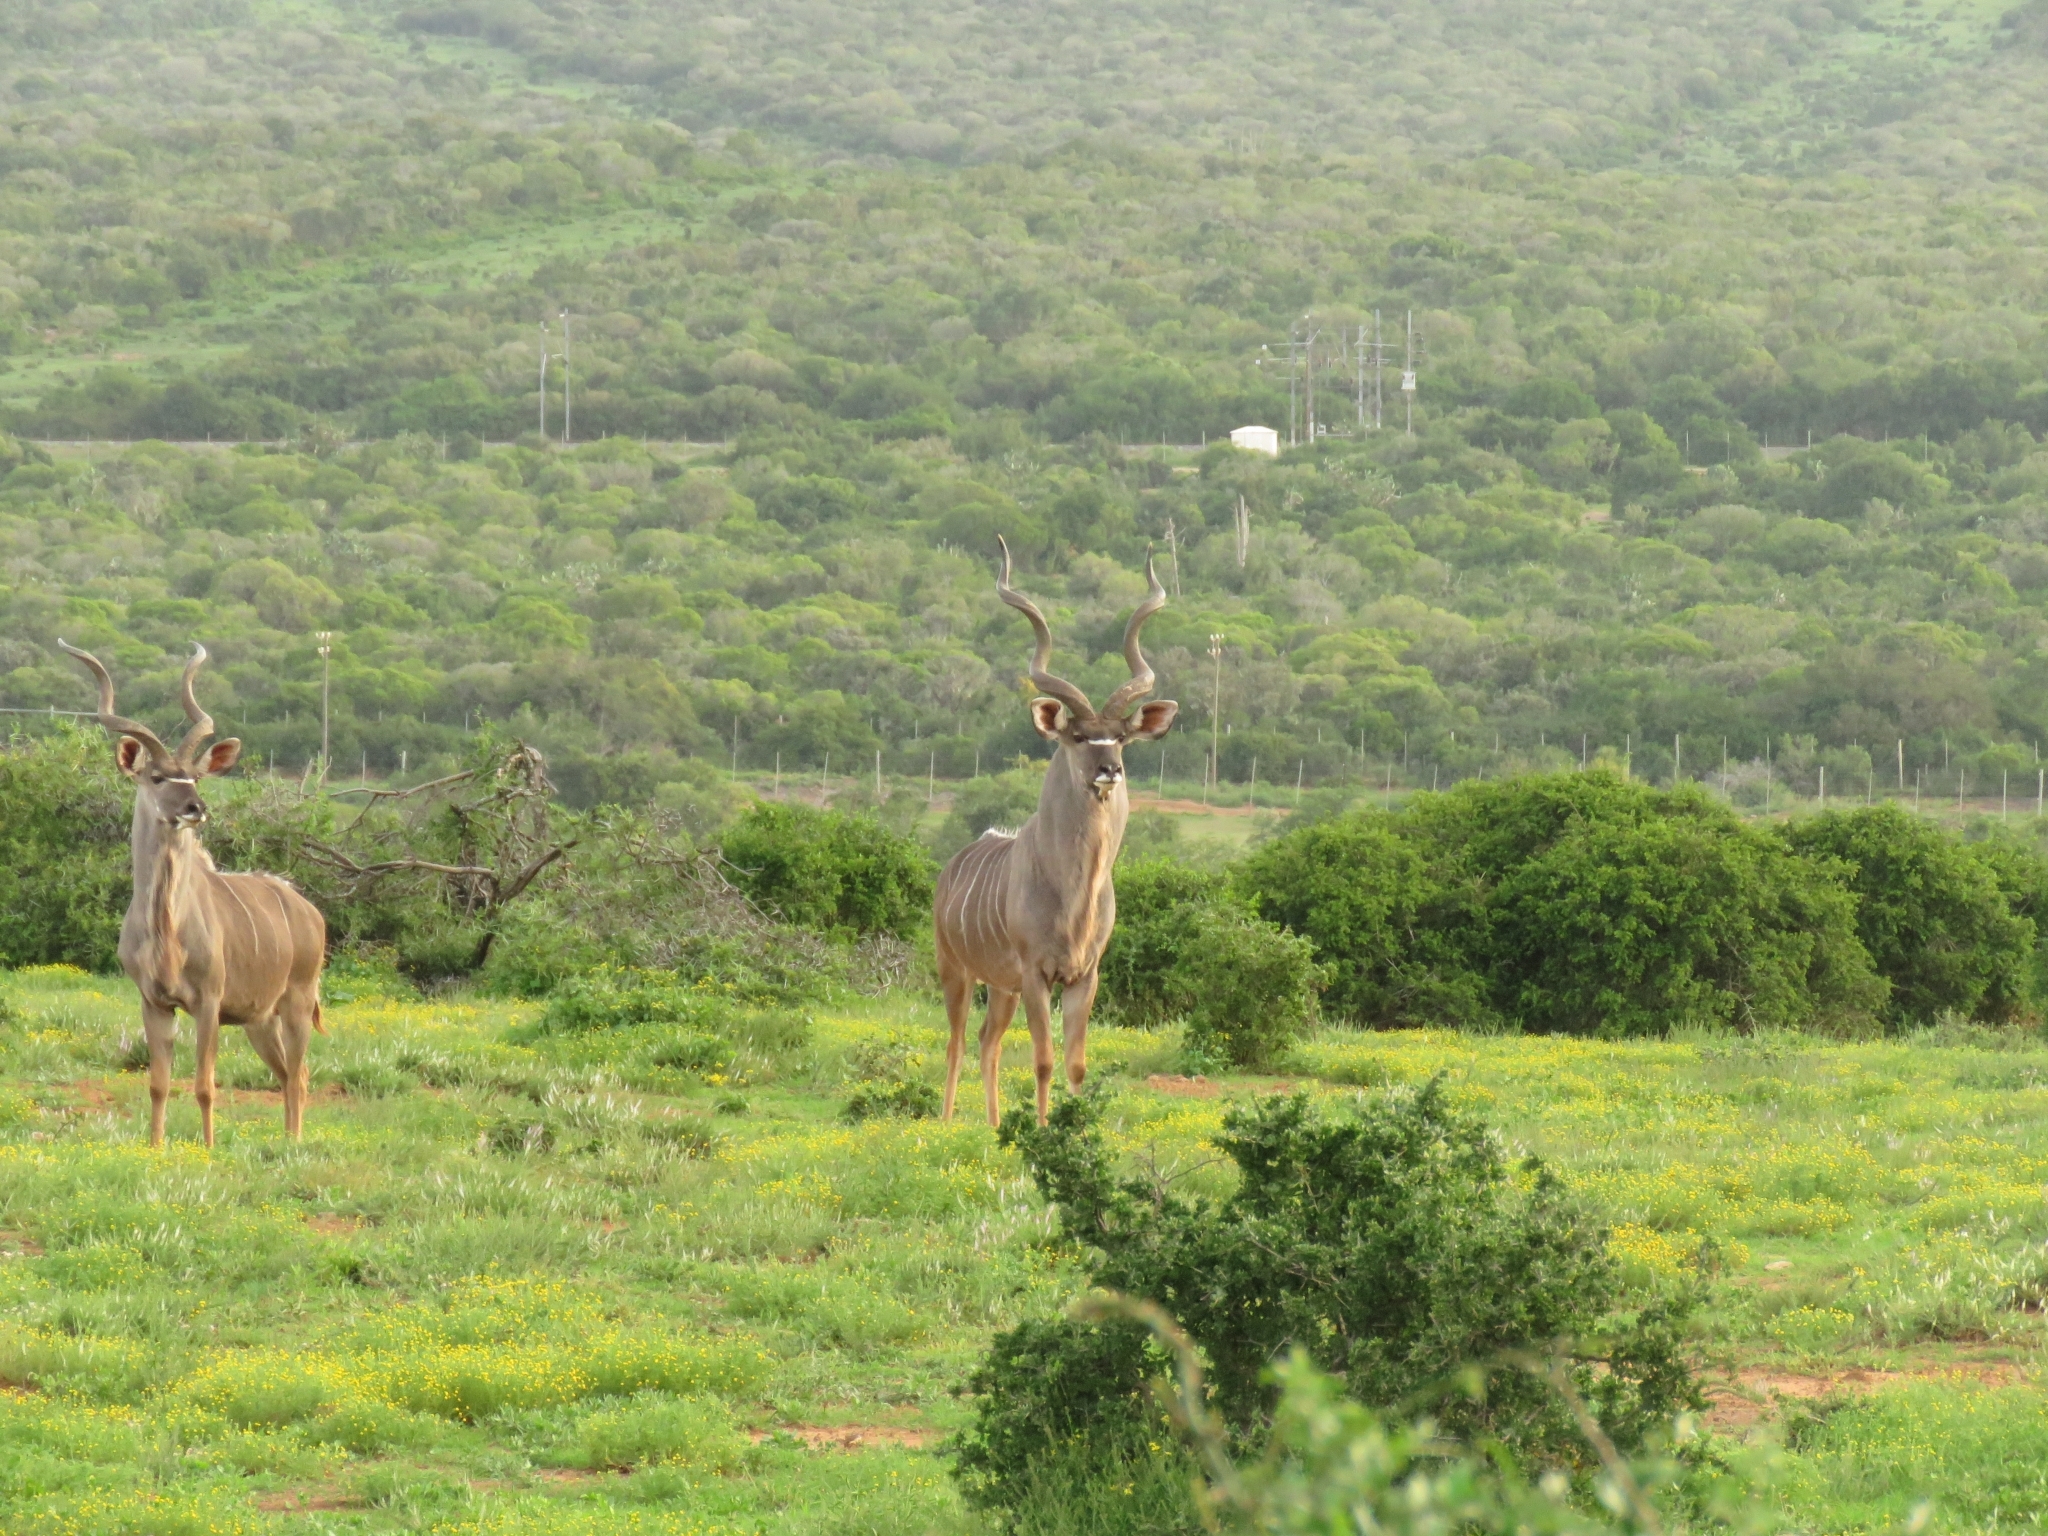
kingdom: Animalia
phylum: Chordata
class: Mammalia
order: Artiodactyla
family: Bovidae
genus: Tragelaphus
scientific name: Tragelaphus strepsiceros
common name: Greater kudu
